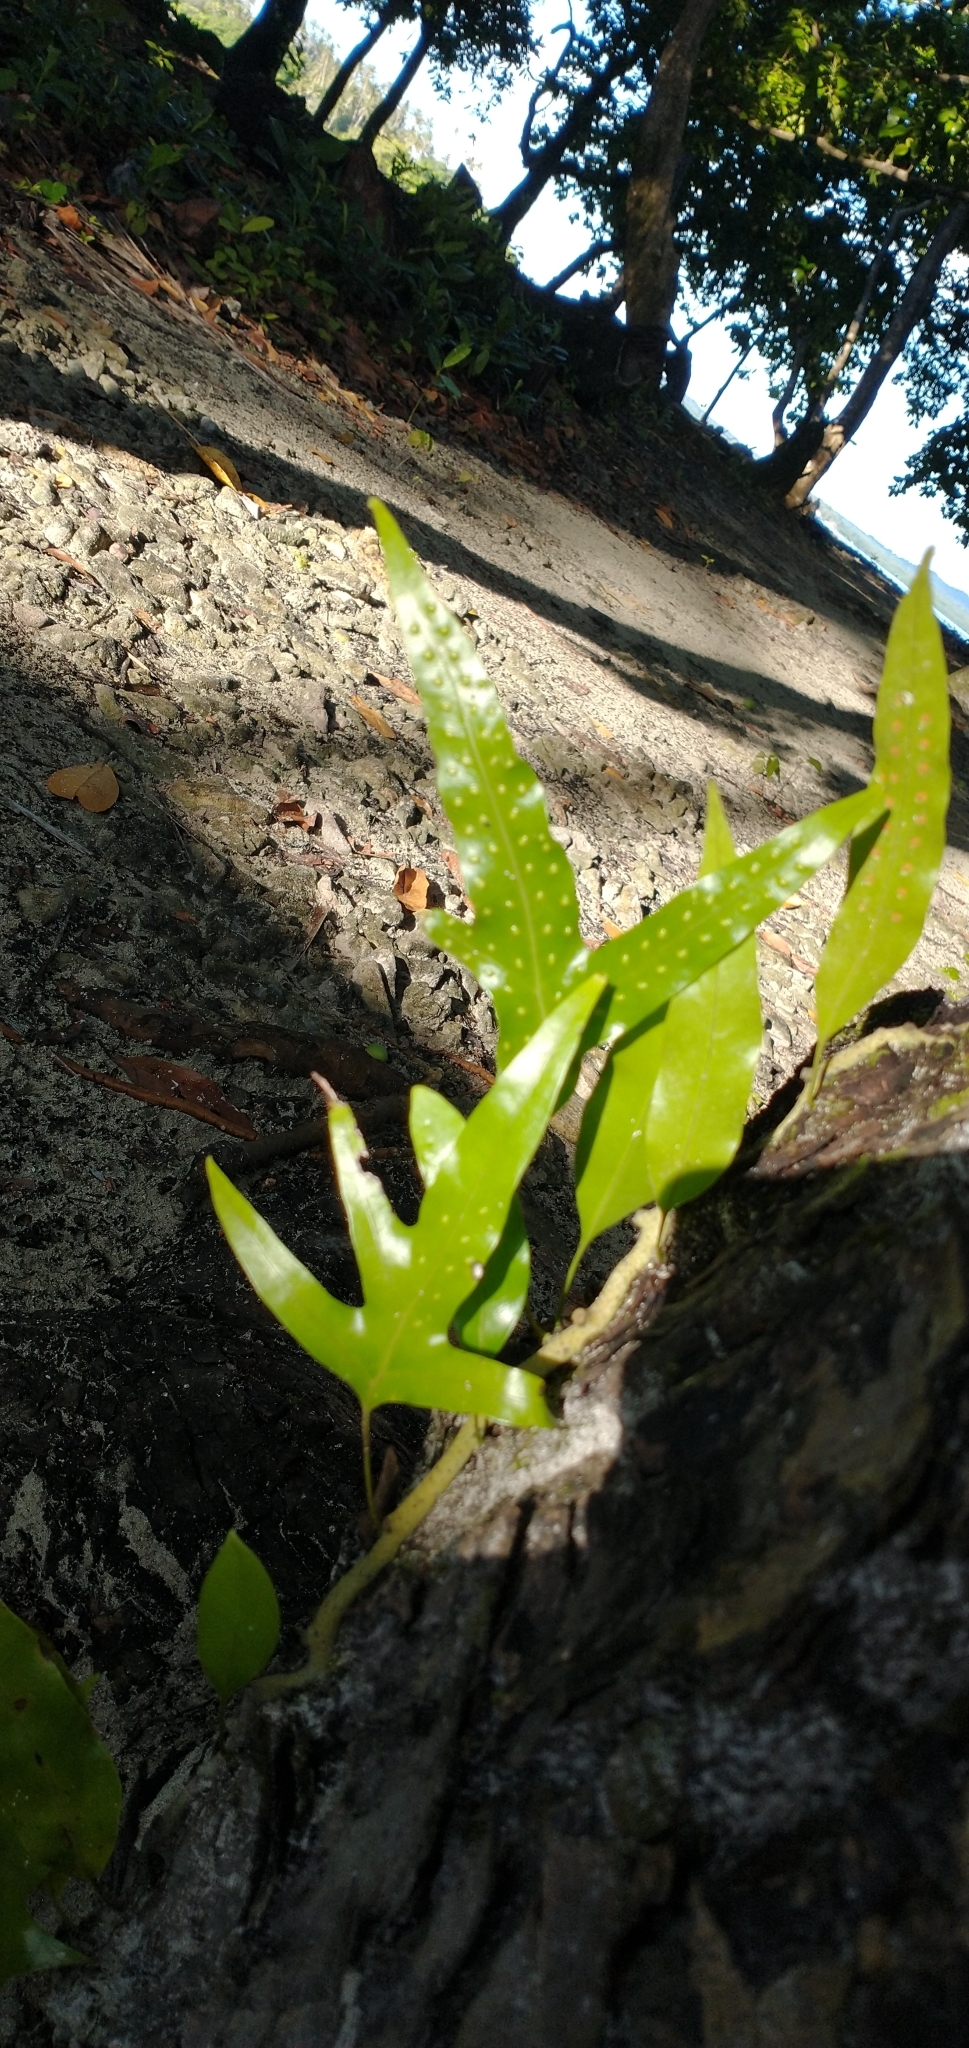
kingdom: Plantae
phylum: Tracheophyta
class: Polypodiopsida
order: Polypodiales
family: Polypodiaceae
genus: Microsorum
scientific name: Microsorum scolopendria
